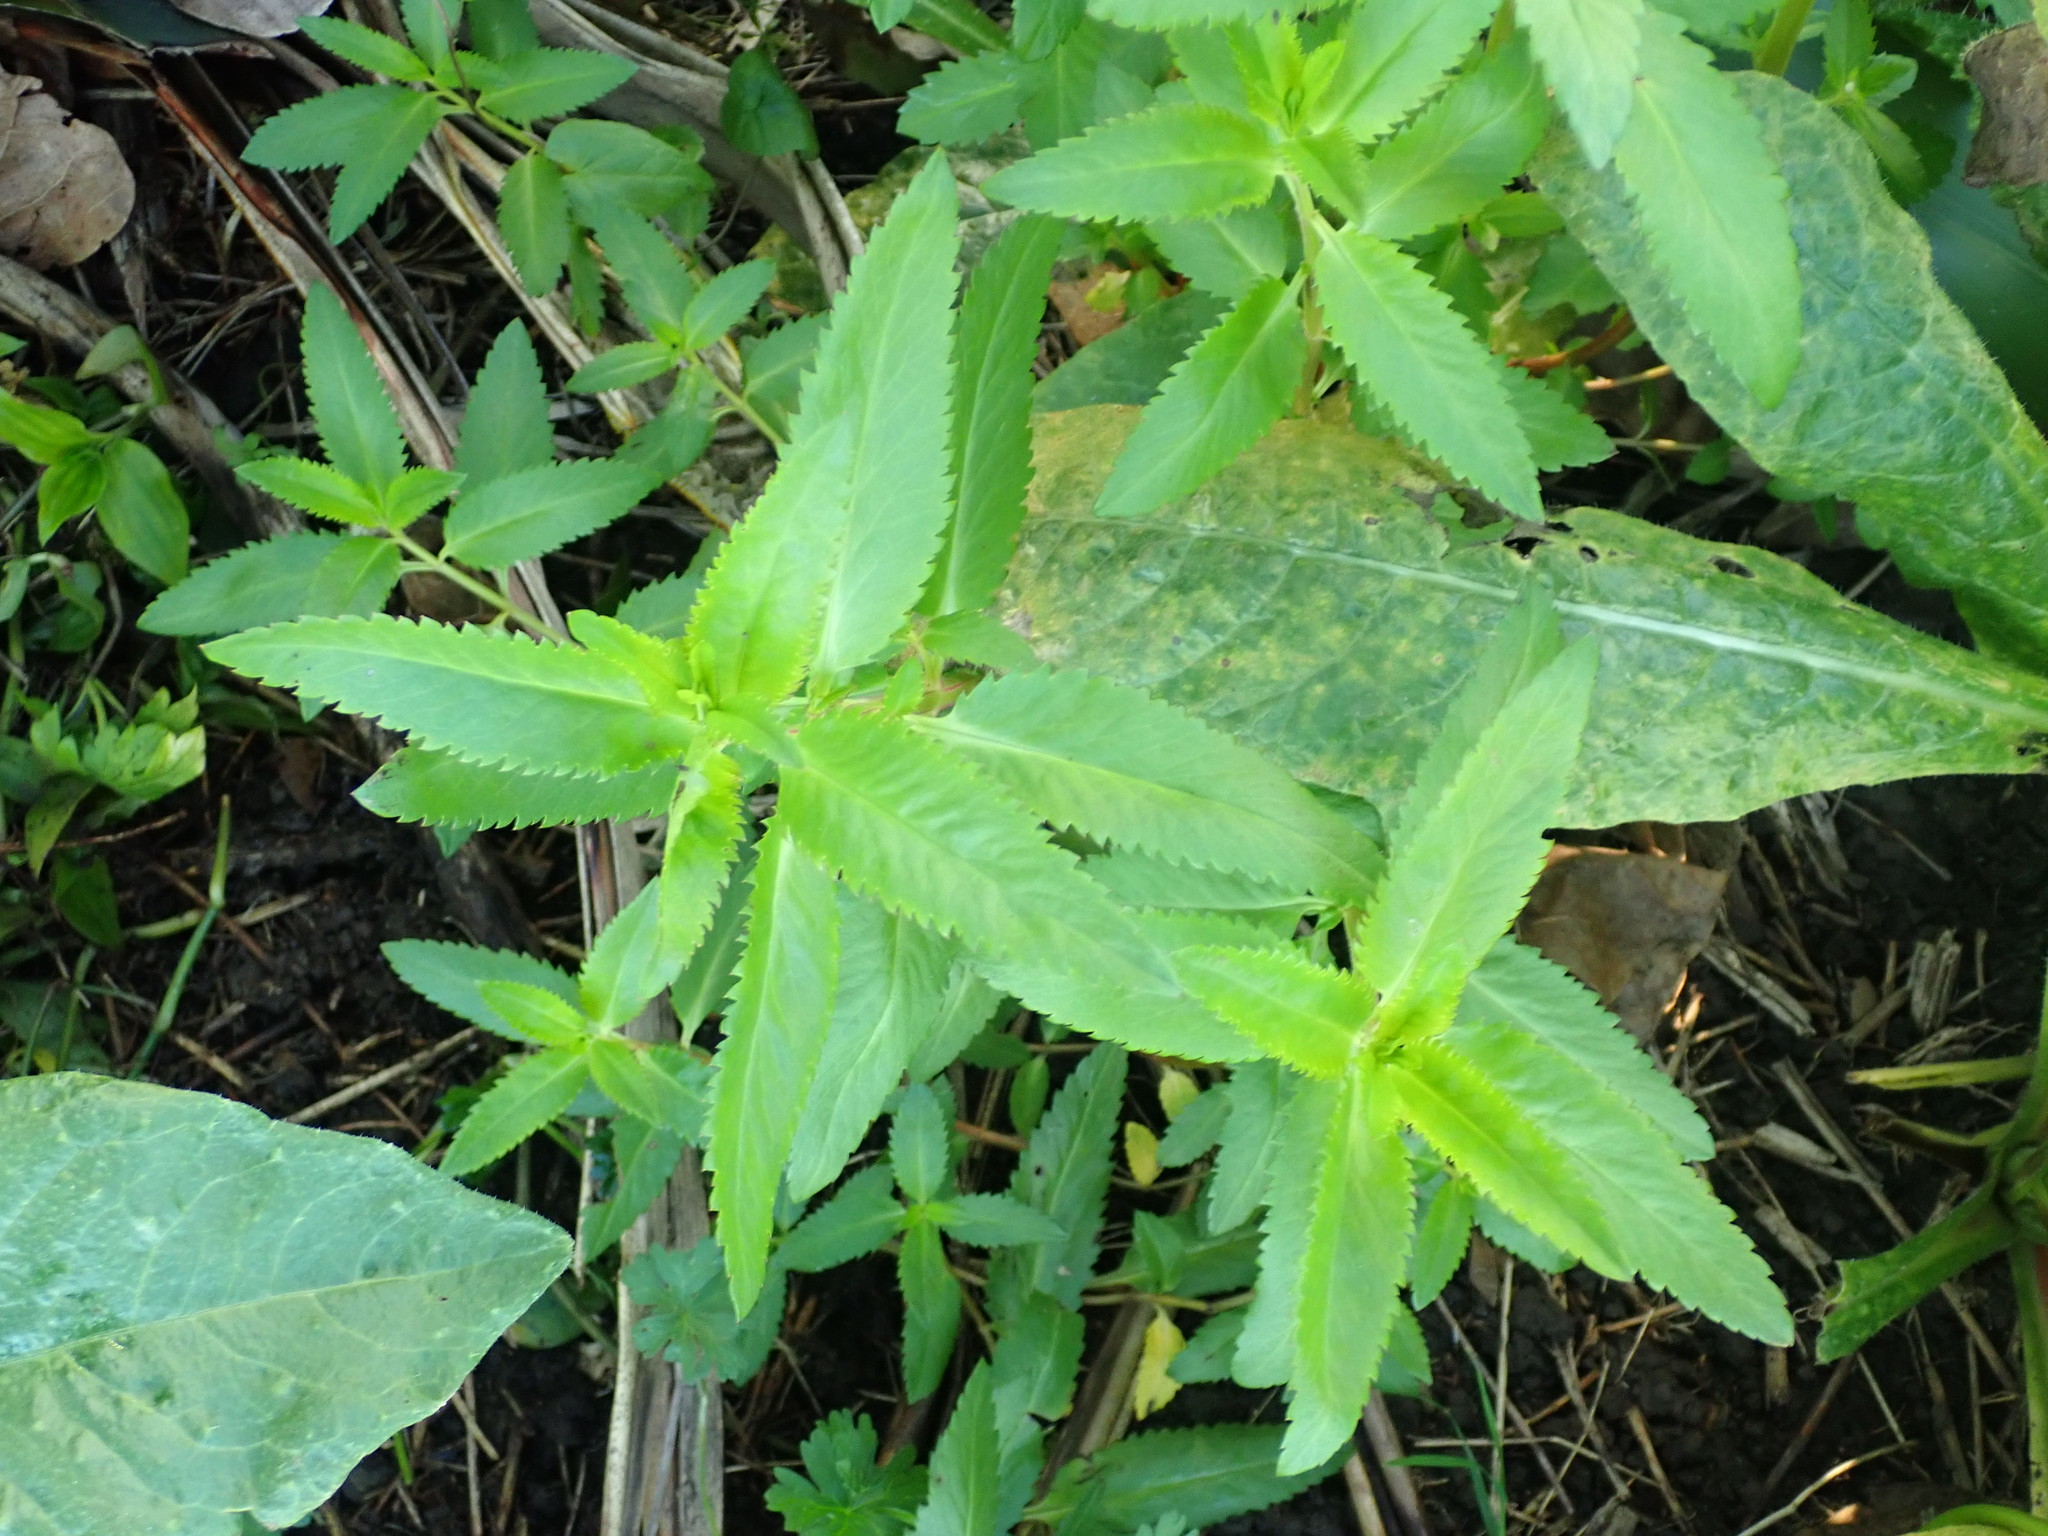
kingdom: Plantae
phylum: Tracheophyta
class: Magnoliopsida
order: Saxifragales
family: Haloragaceae
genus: Haloragis
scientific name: Haloragis erecta
